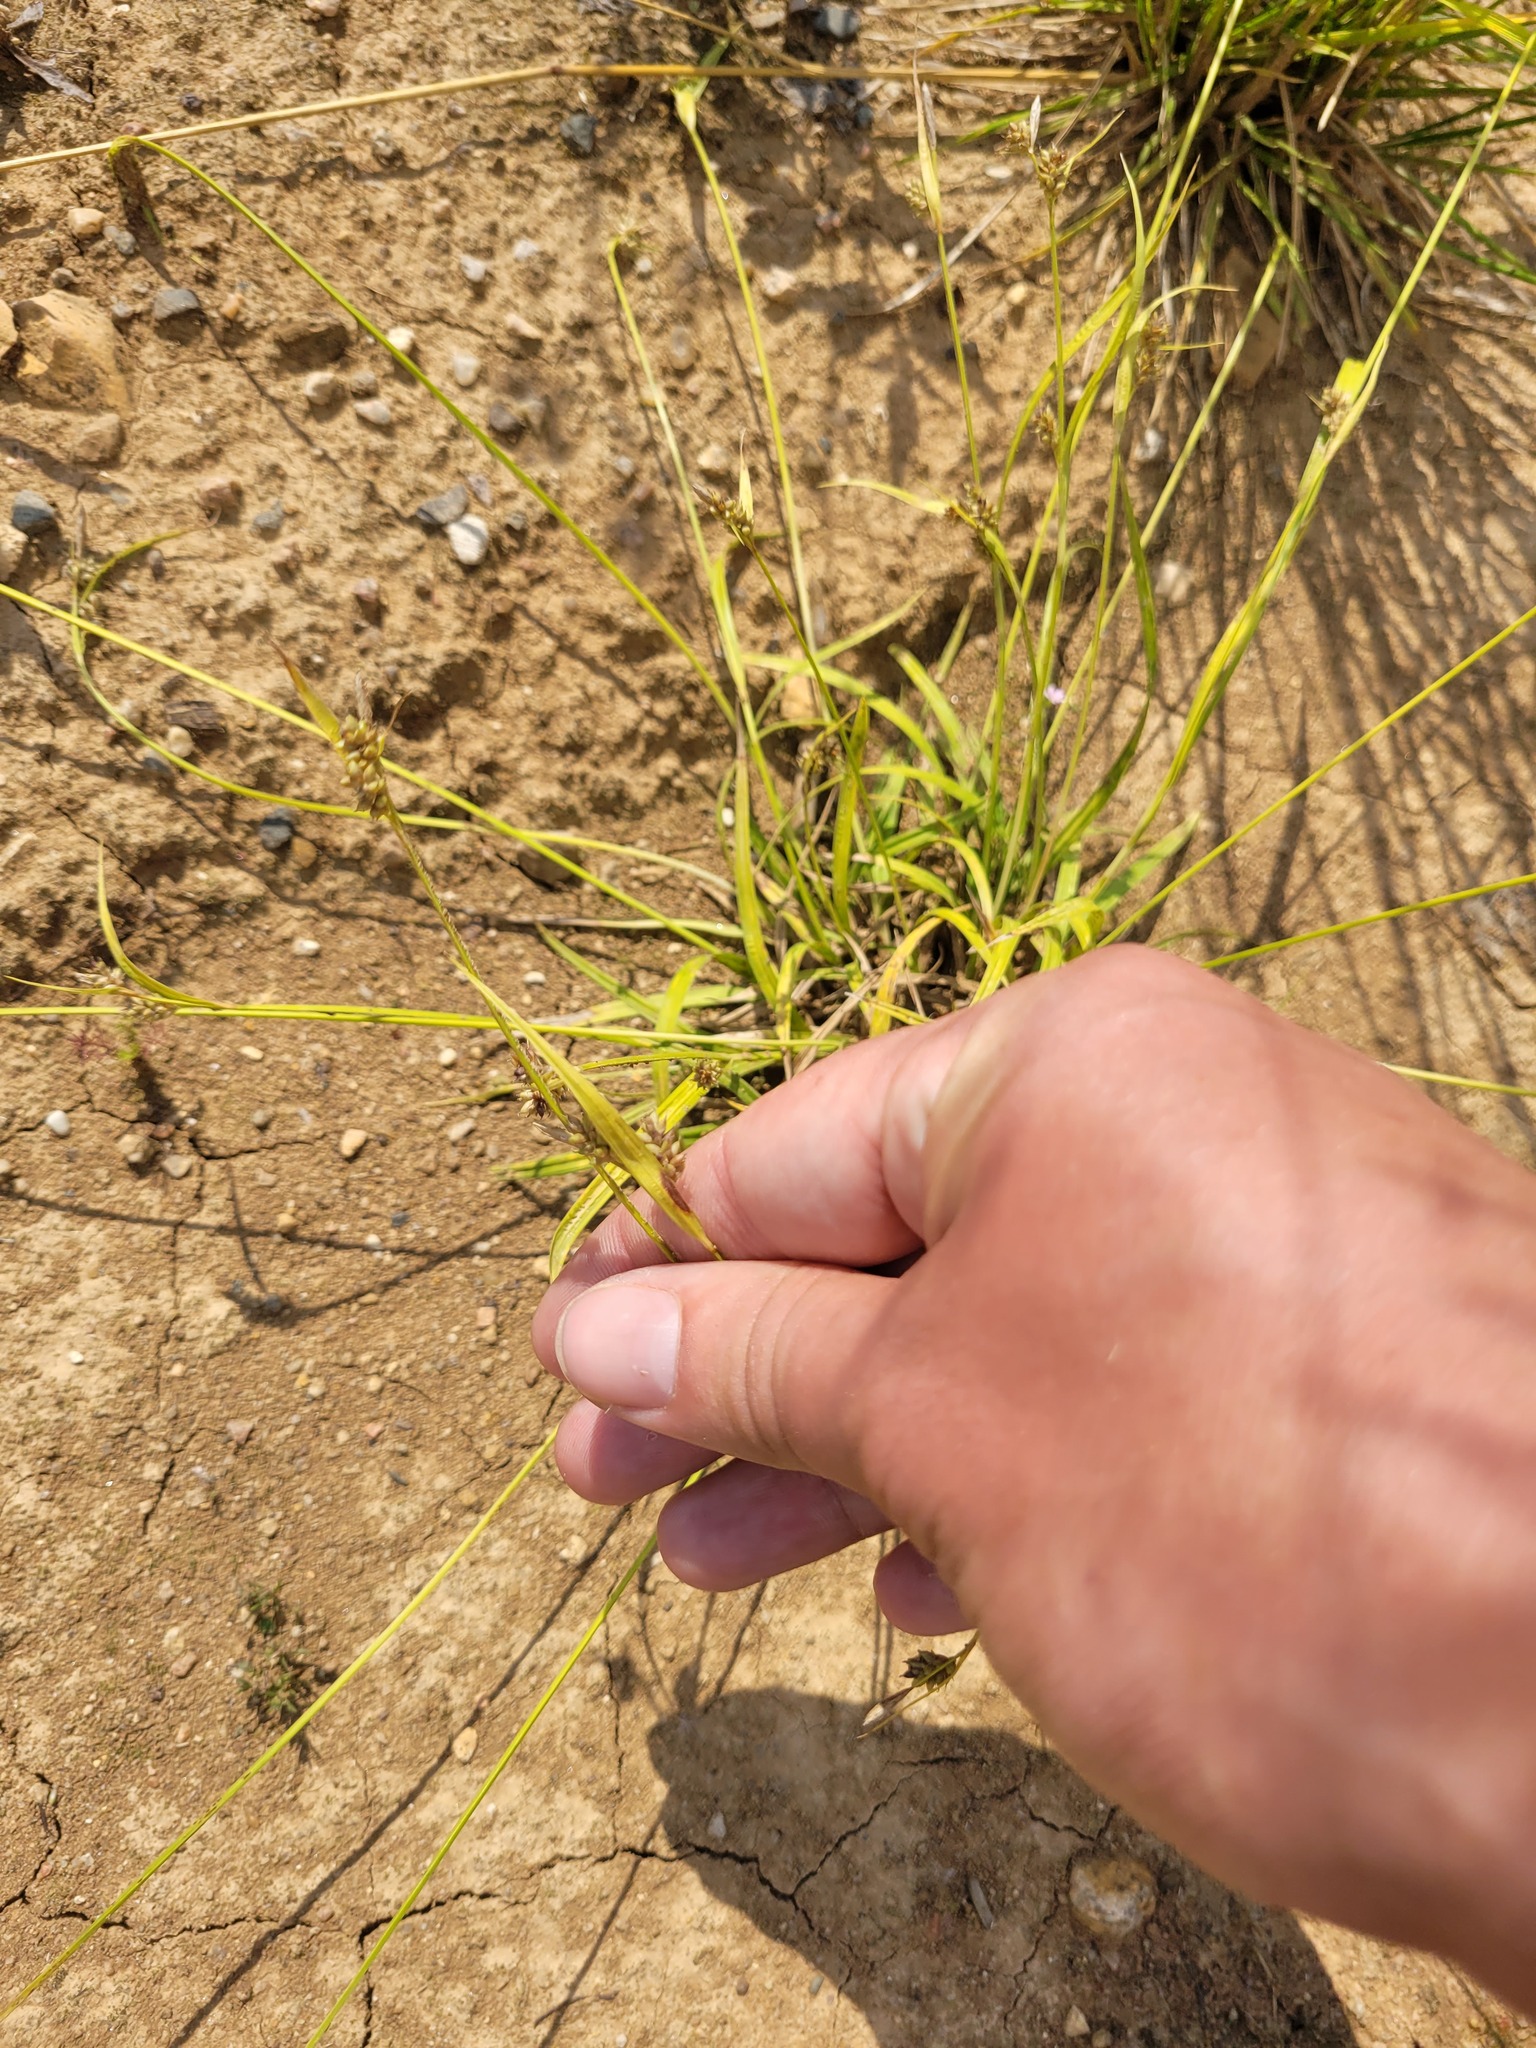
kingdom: Plantae
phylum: Tracheophyta
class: Liliopsida
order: Poales
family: Cyperaceae
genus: Carex
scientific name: Carex pallescens
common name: Pale sedge
